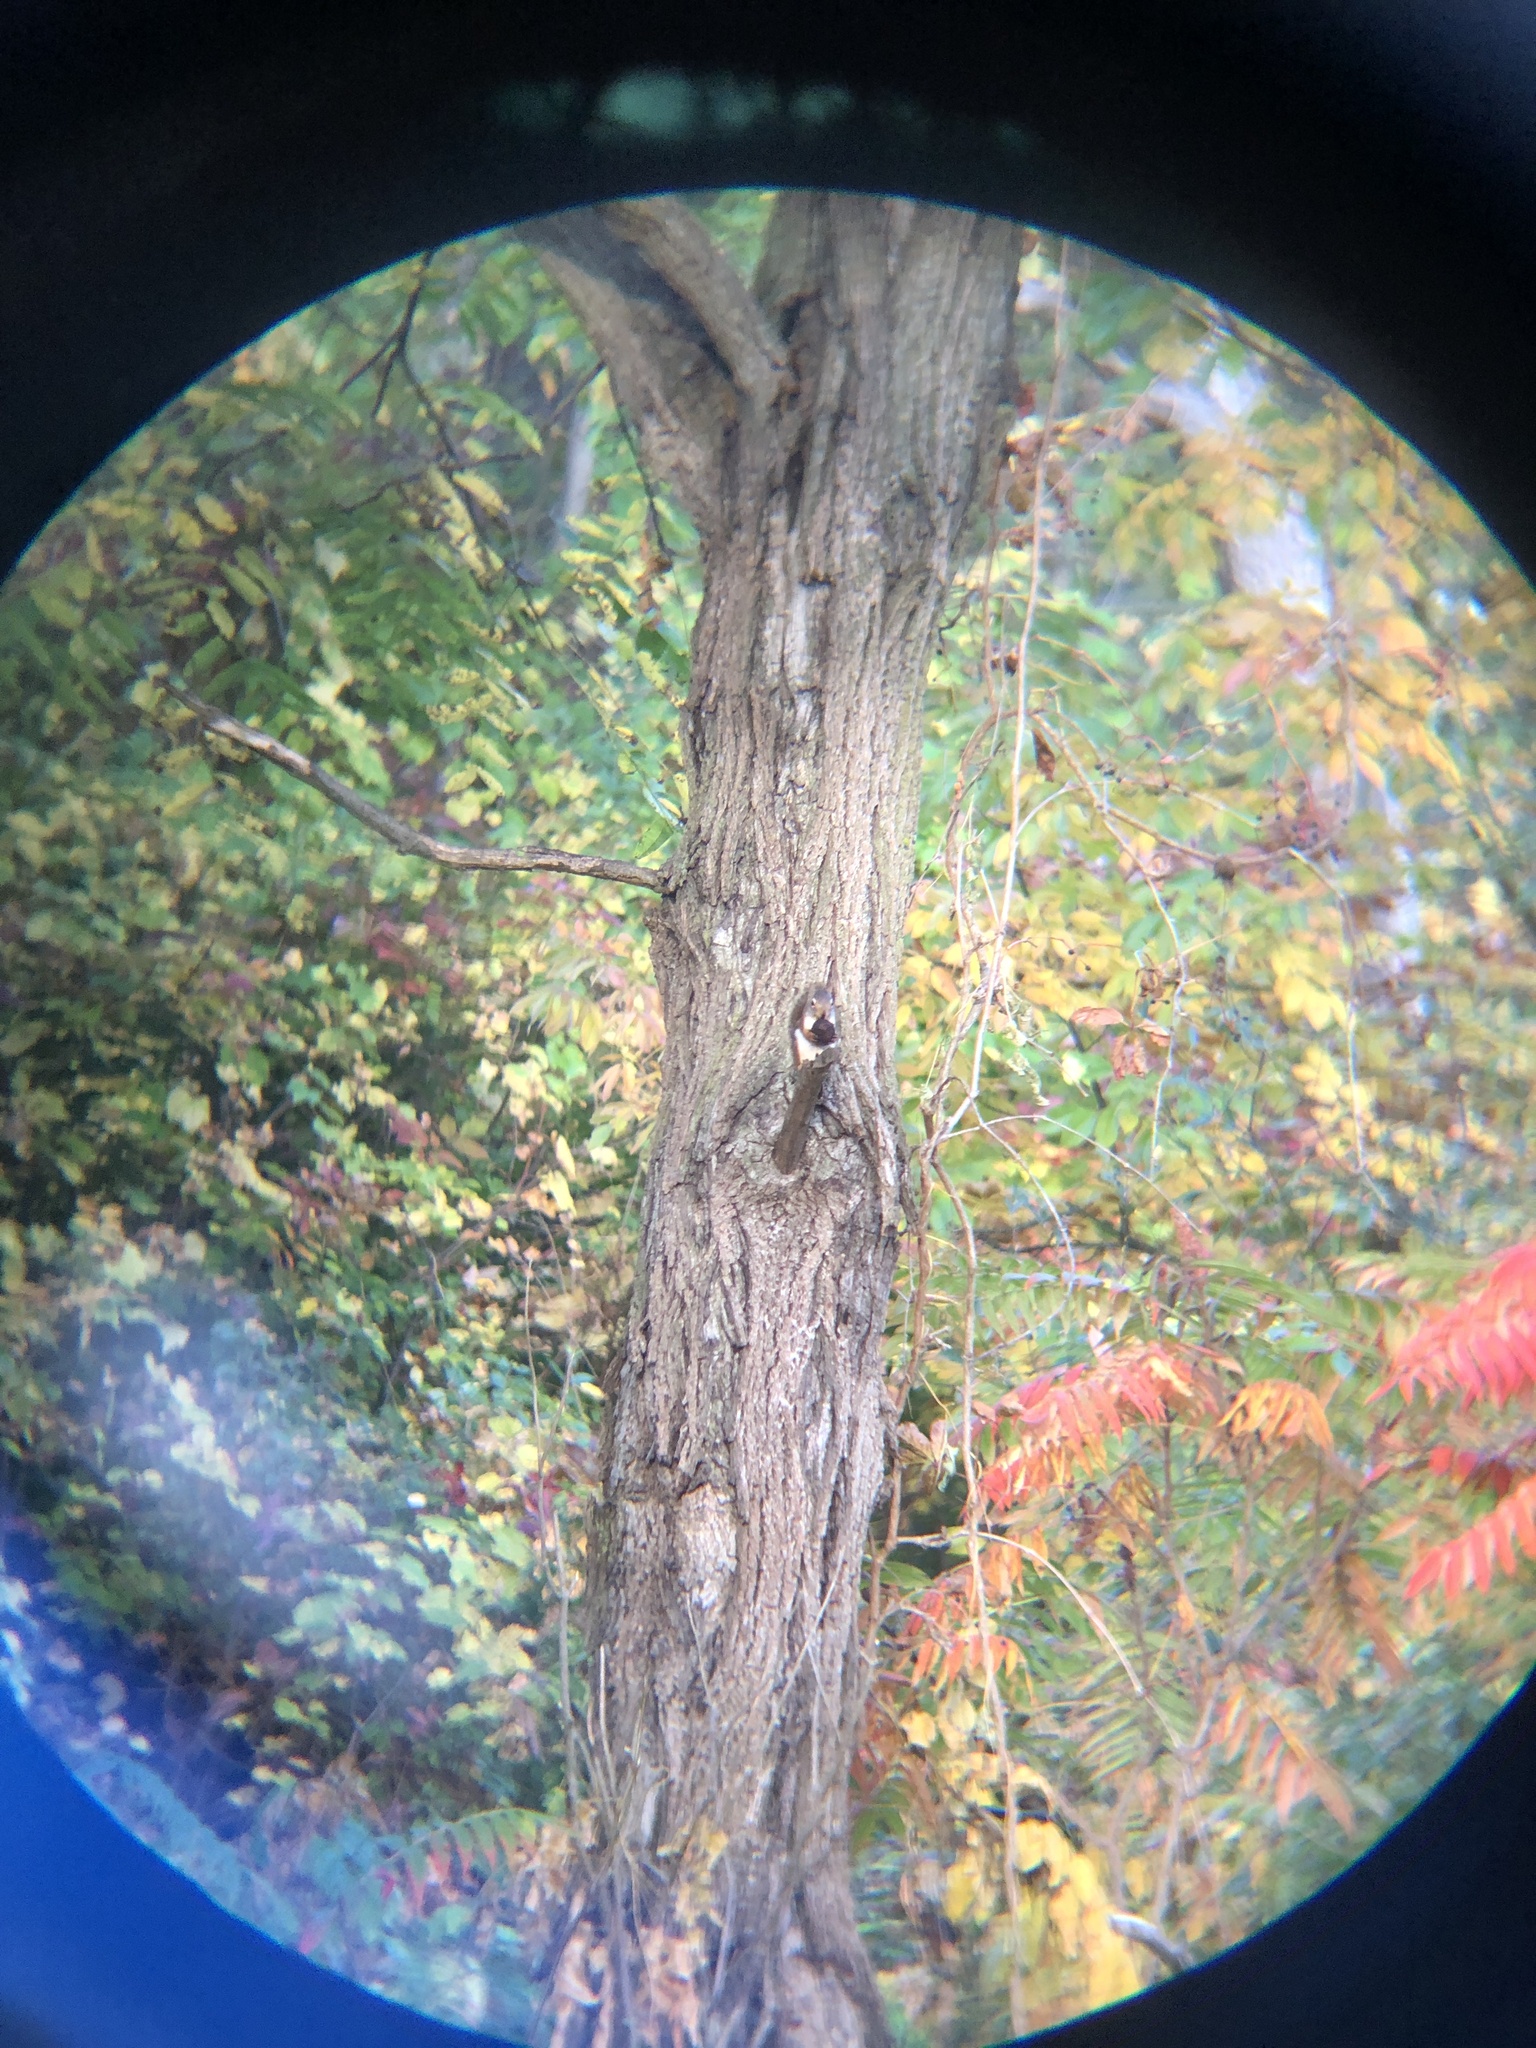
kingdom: Animalia
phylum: Chordata
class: Mammalia
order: Rodentia
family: Sciuridae
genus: Tamiasciurus
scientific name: Tamiasciurus hudsonicus
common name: Red squirrel
